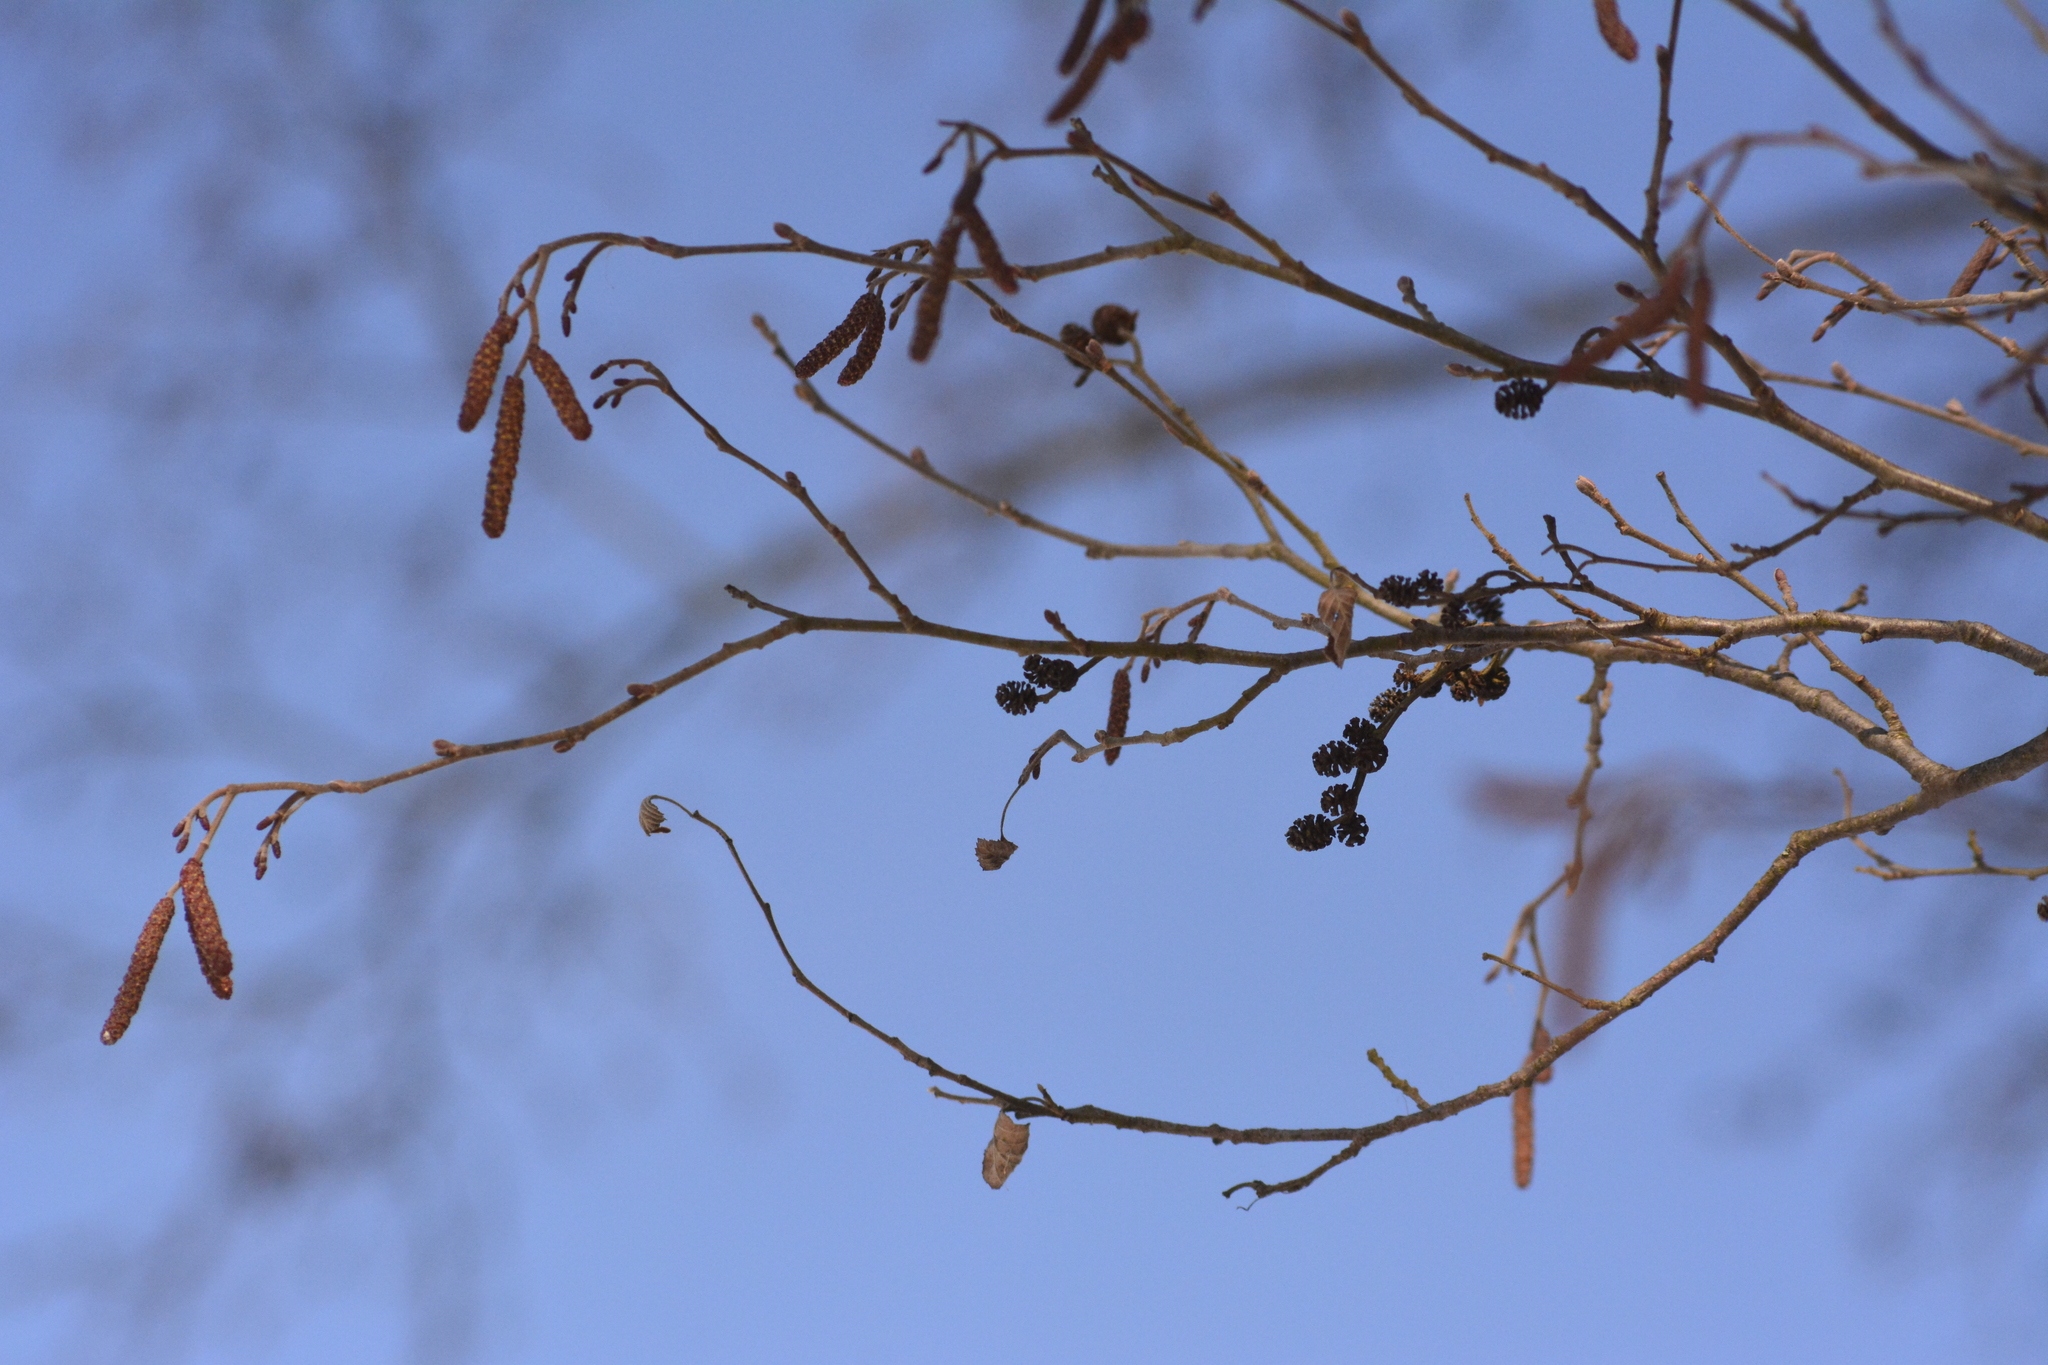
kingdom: Plantae
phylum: Tracheophyta
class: Magnoliopsida
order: Fagales
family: Betulaceae
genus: Alnus
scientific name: Alnus incana
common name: Grey alder
